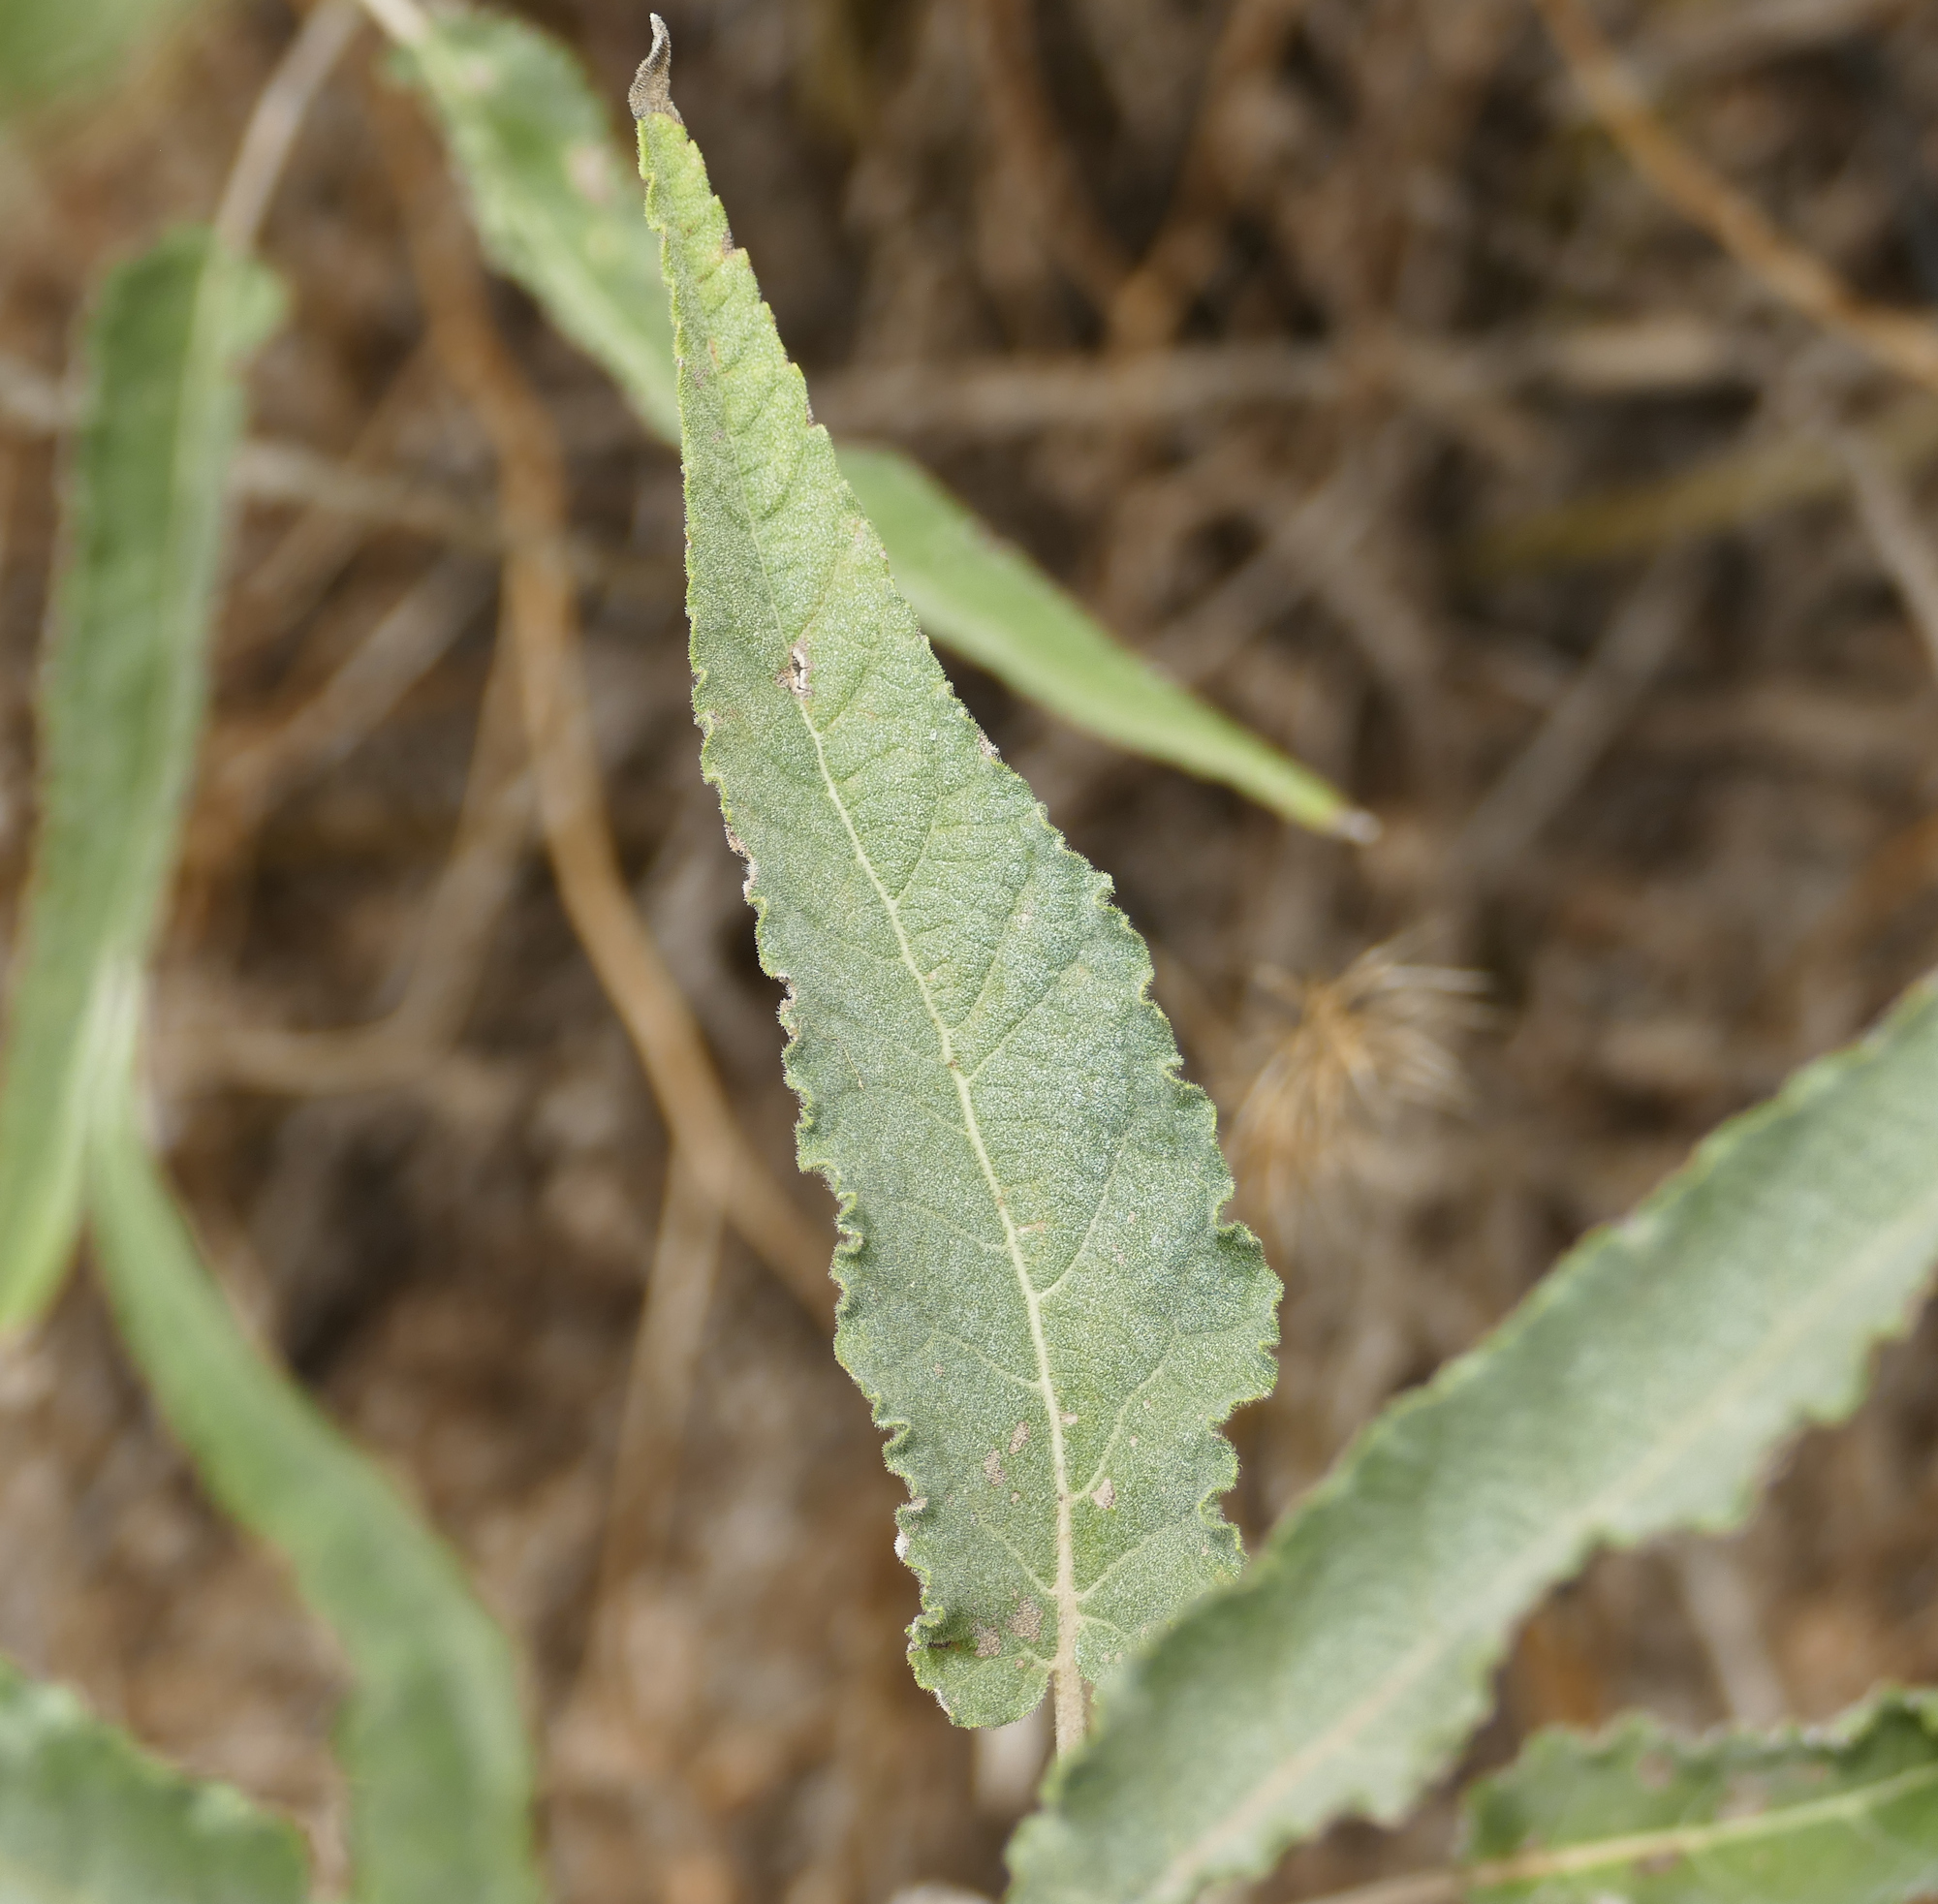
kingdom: Plantae
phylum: Tracheophyta
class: Magnoliopsida
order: Asterales
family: Asteraceae
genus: Ambrosia
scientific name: Ambrosia ambrosioides
